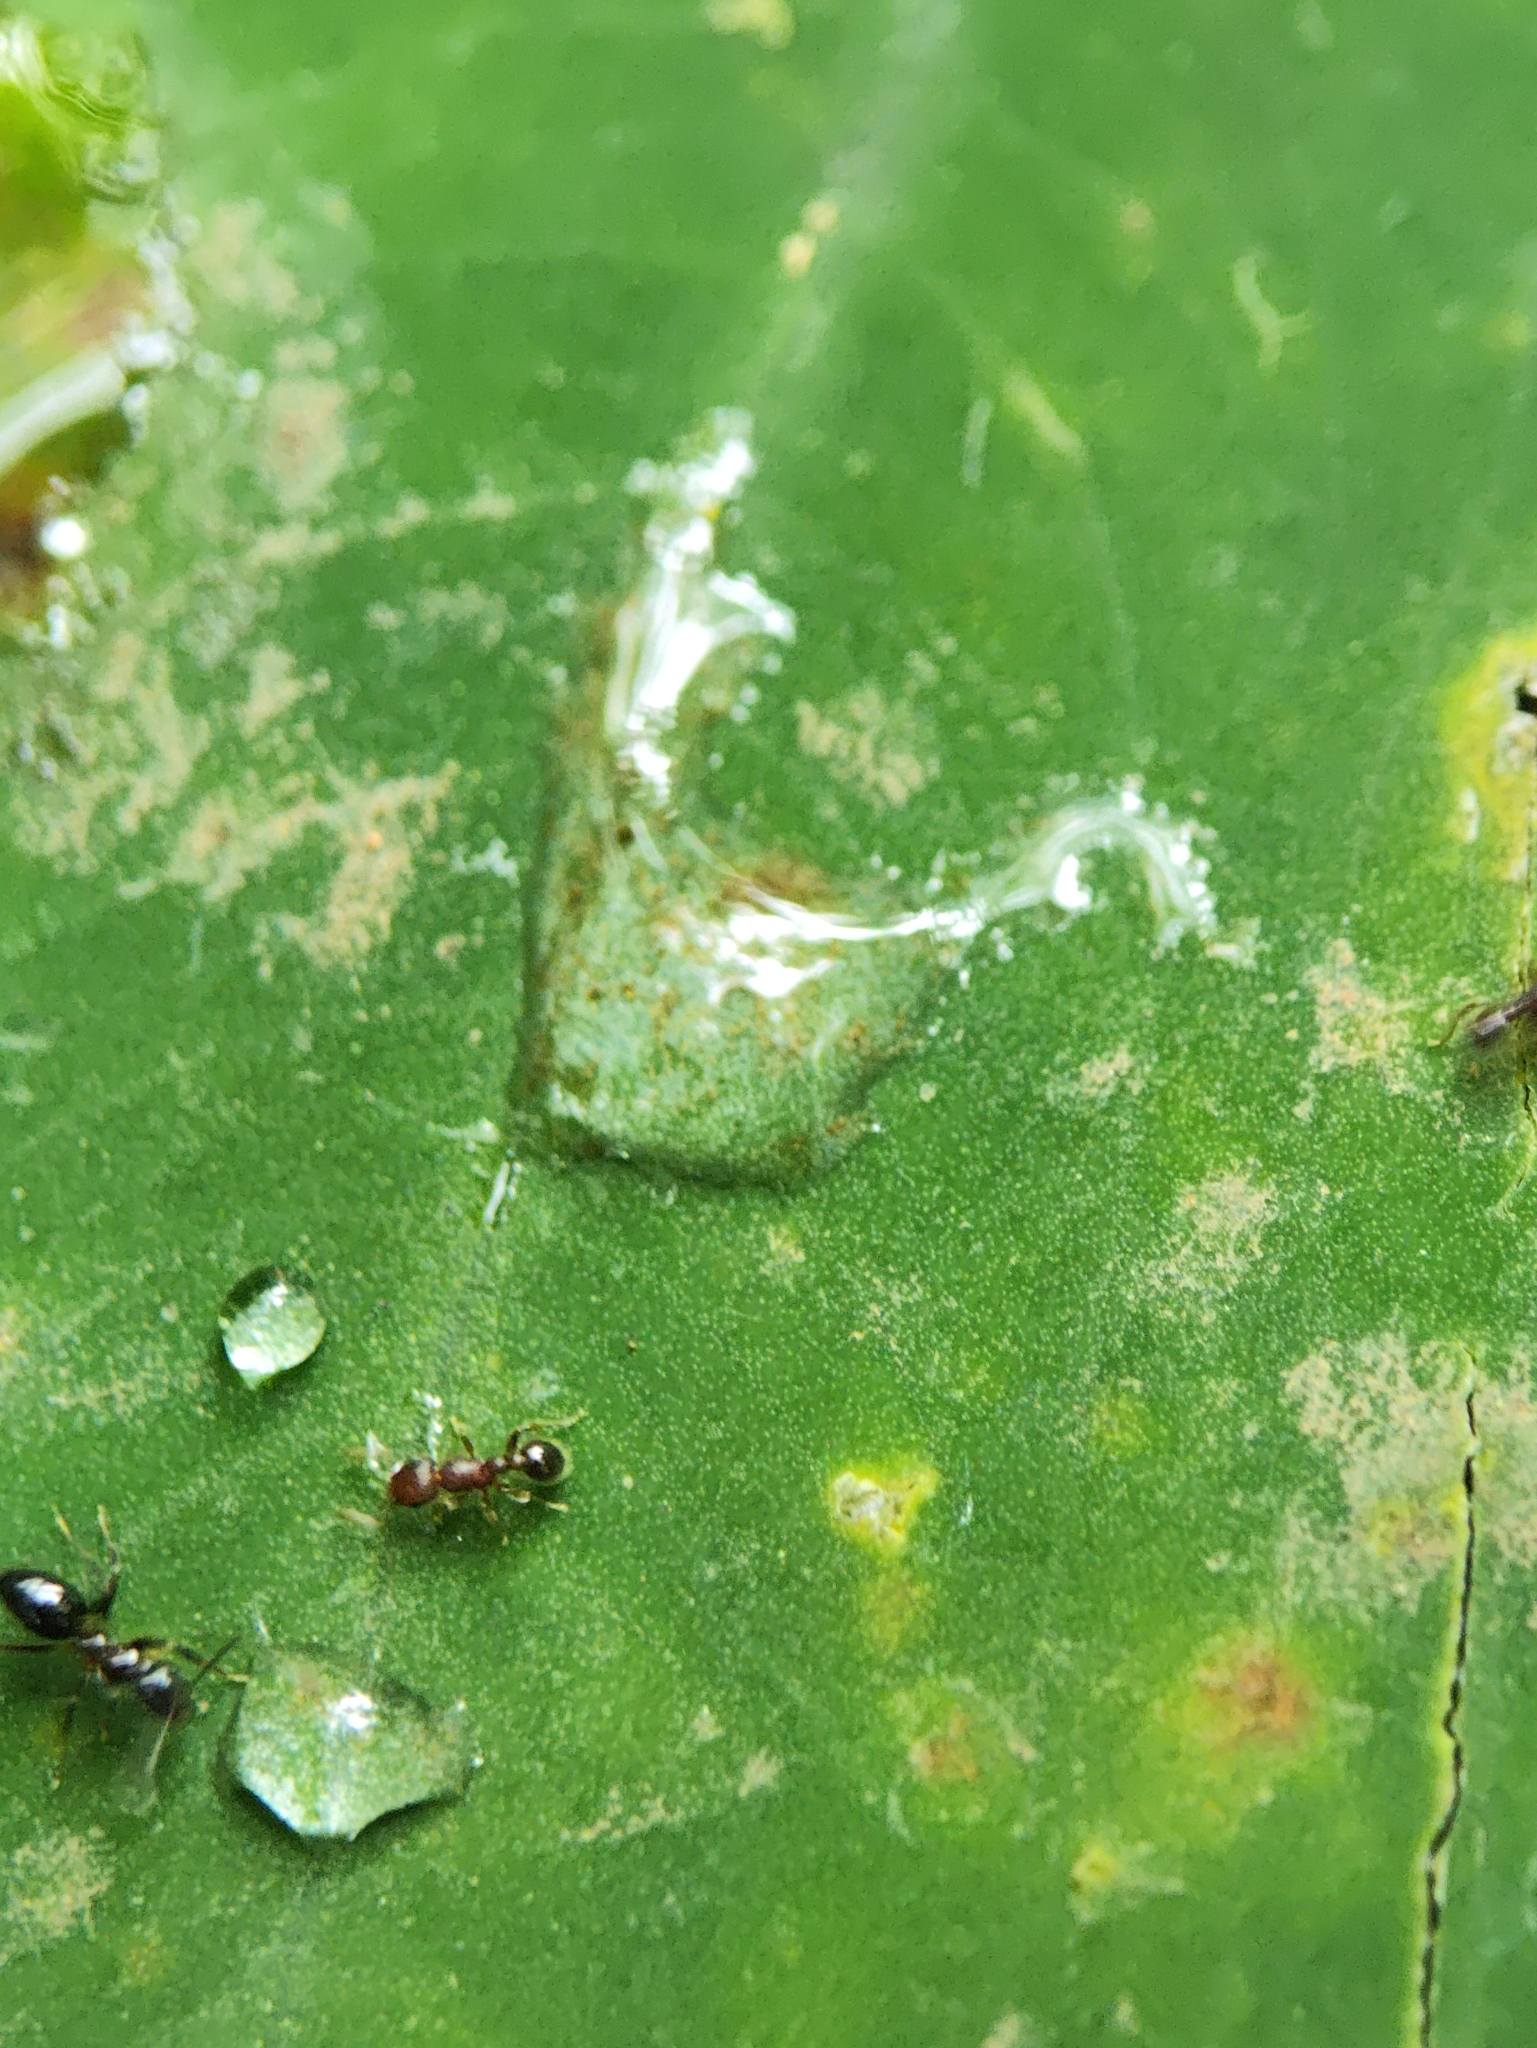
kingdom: Animalia
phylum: Arthropoda
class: Insecta
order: Hymenoptera
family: Formicidae
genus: Tetramorium
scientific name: Tetramorium lanuginosum
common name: Ant
